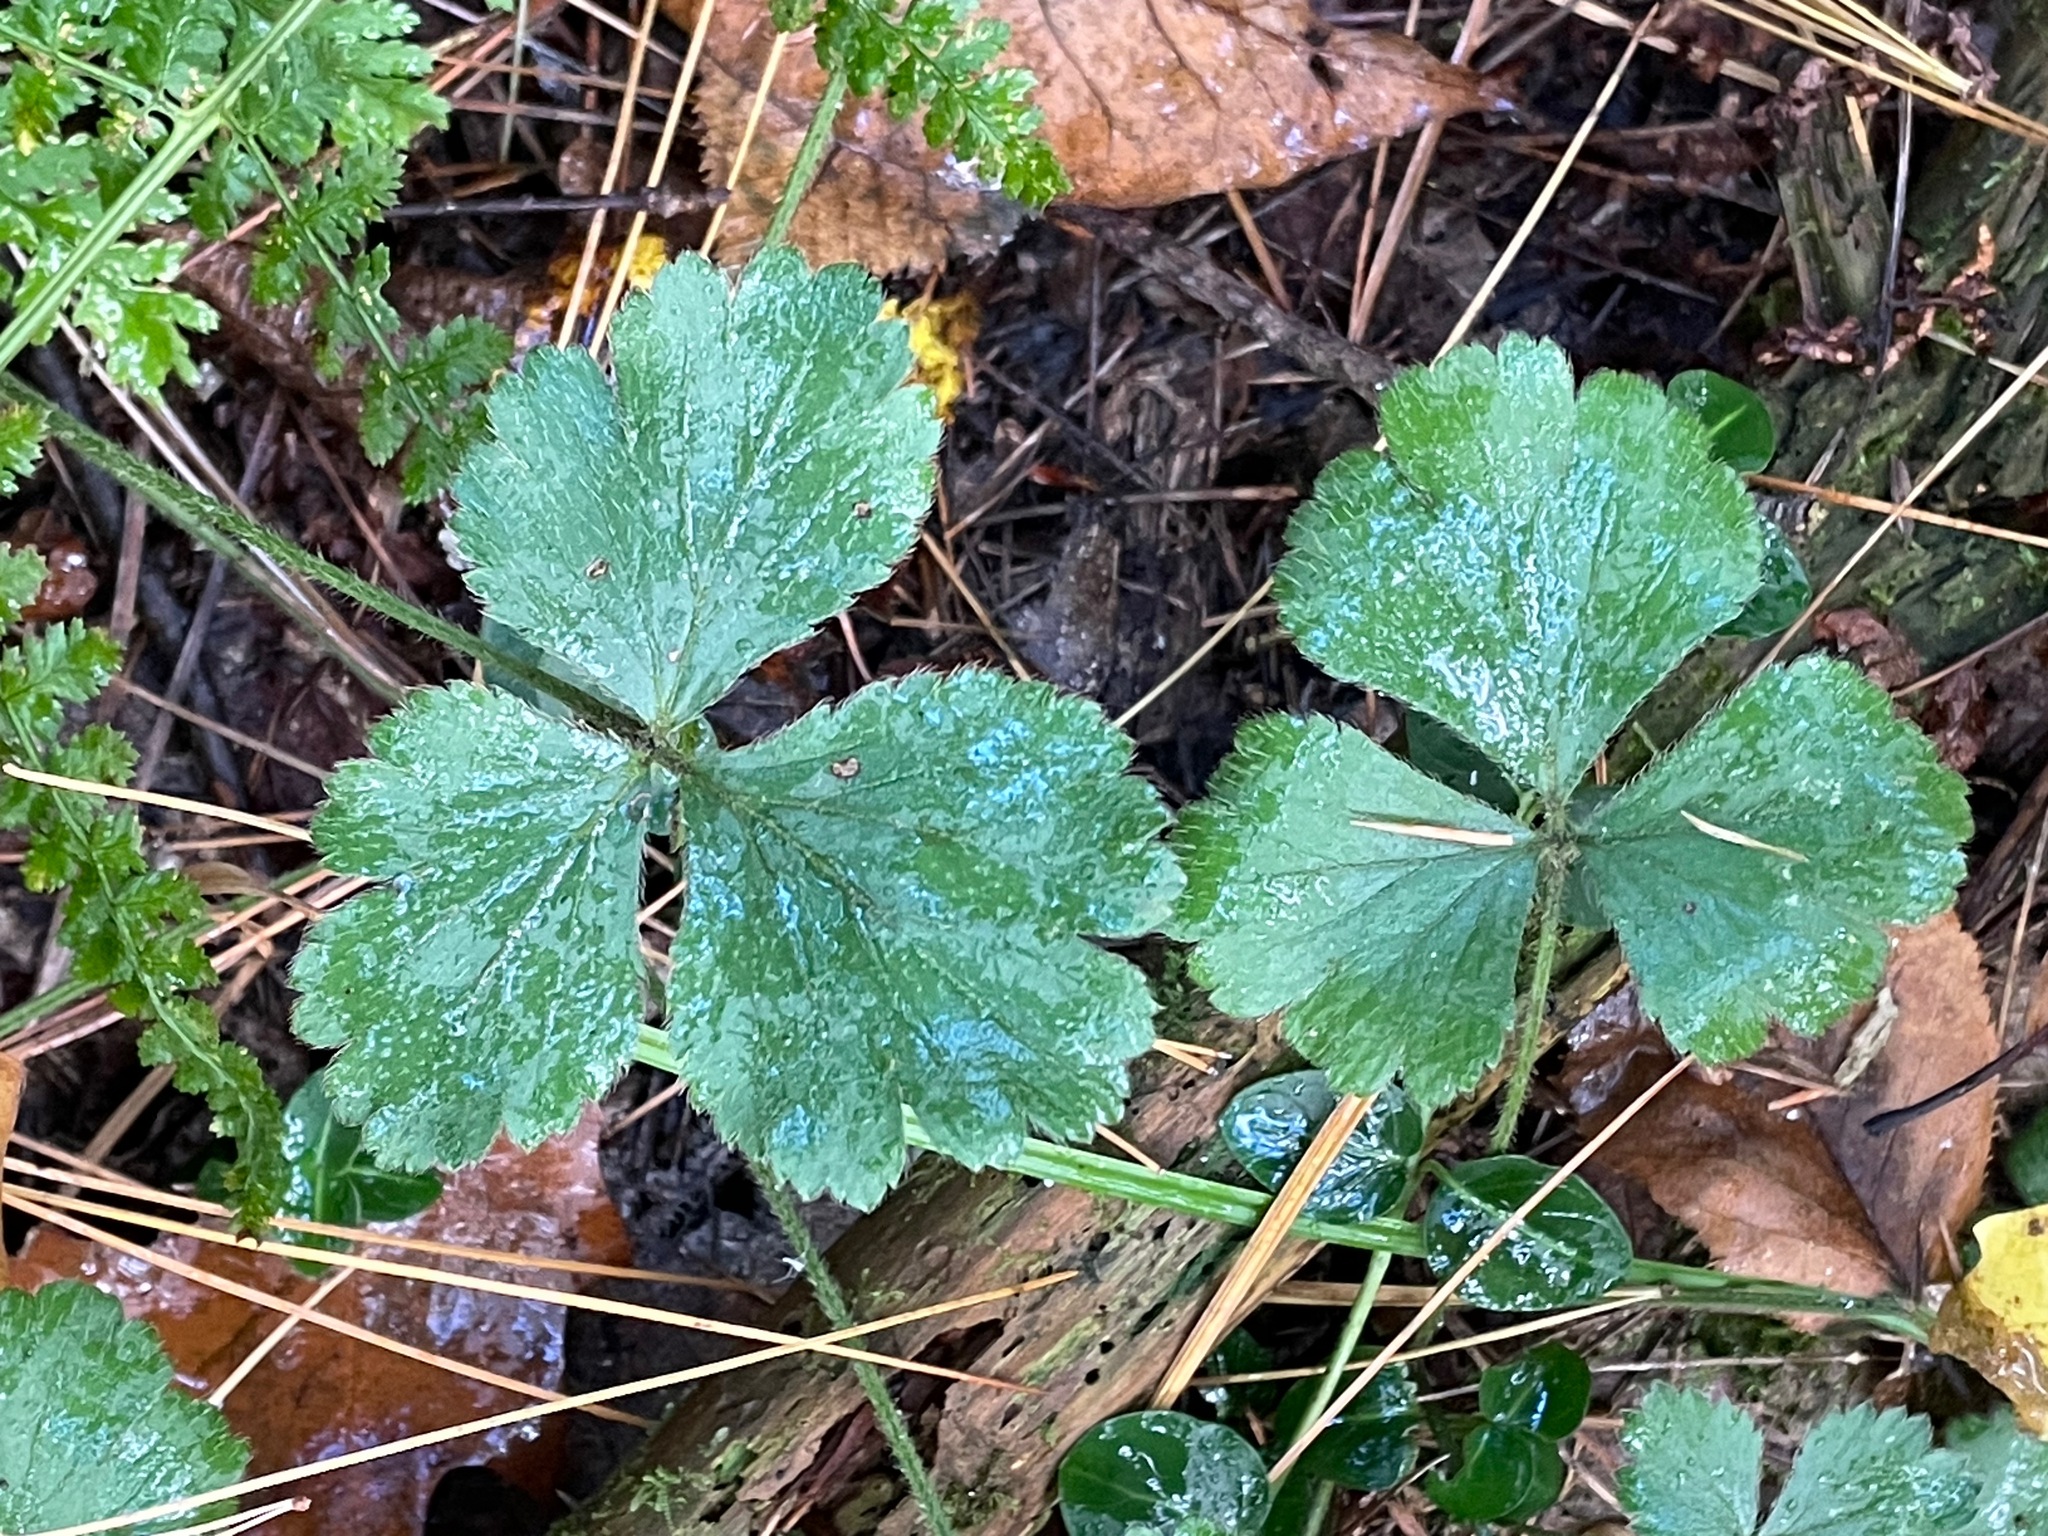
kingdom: Plantae
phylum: Tracheophyta
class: Magnoliopsida
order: Rosales
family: Rosaceae
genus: Geum
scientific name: Geum fragarioides
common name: Appalachian barren strawberry
